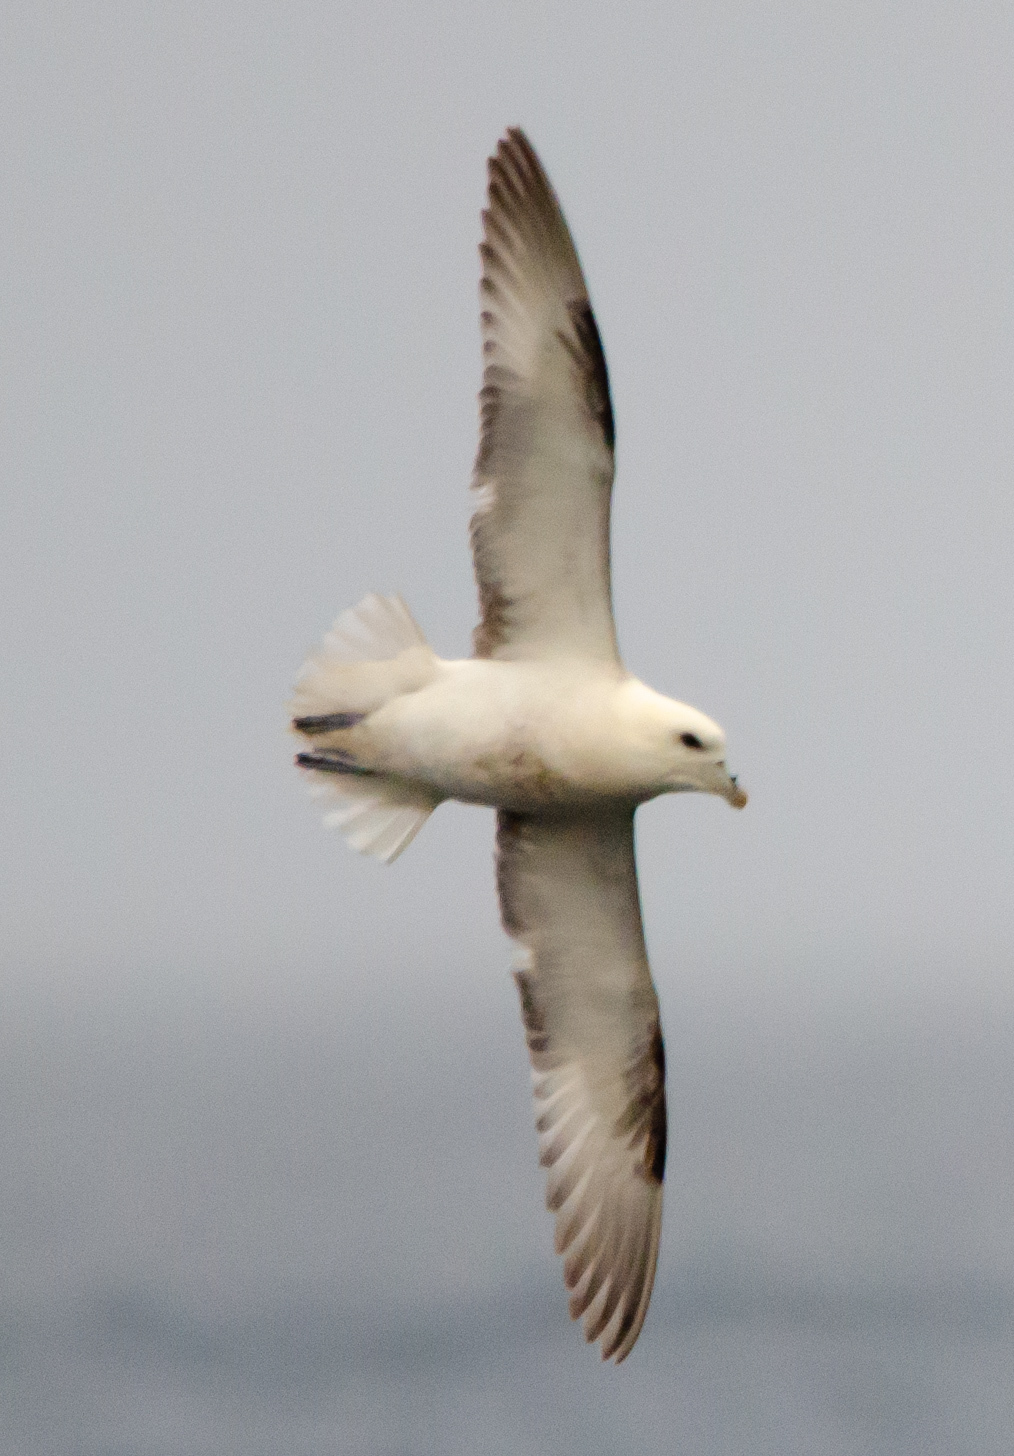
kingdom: Animalia
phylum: Chordata
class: Aves
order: Procellariiformes
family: Procellariidae
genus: Fulmarus
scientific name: Fulmarus glacialis
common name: Northern fulmar
